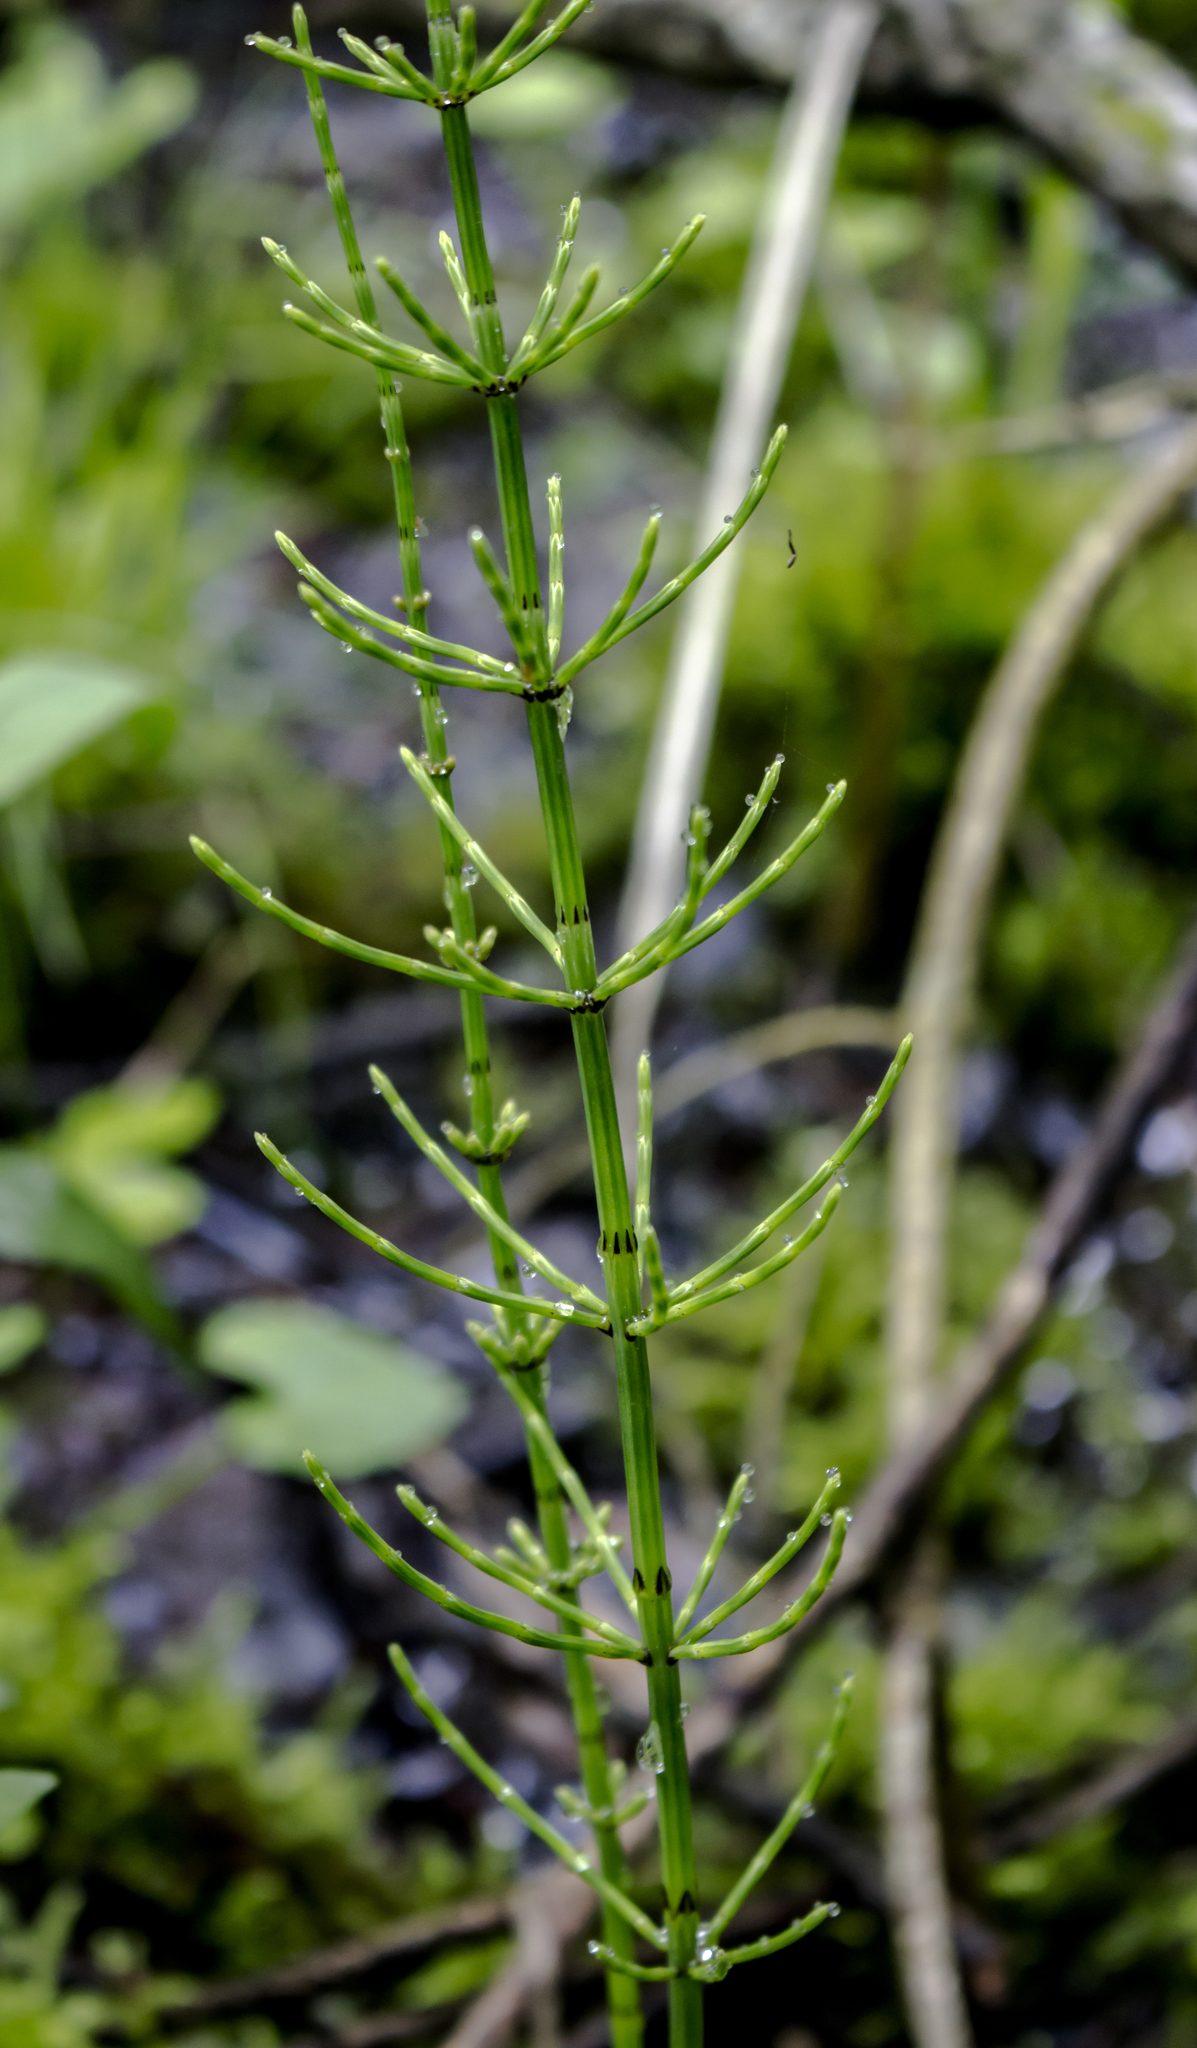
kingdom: Plantae
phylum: Tracheophyta
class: Polypodiopsida
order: Equisetales
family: Equisetaceae
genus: Equisetum
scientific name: Equisetum arvense
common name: Field horsetail
